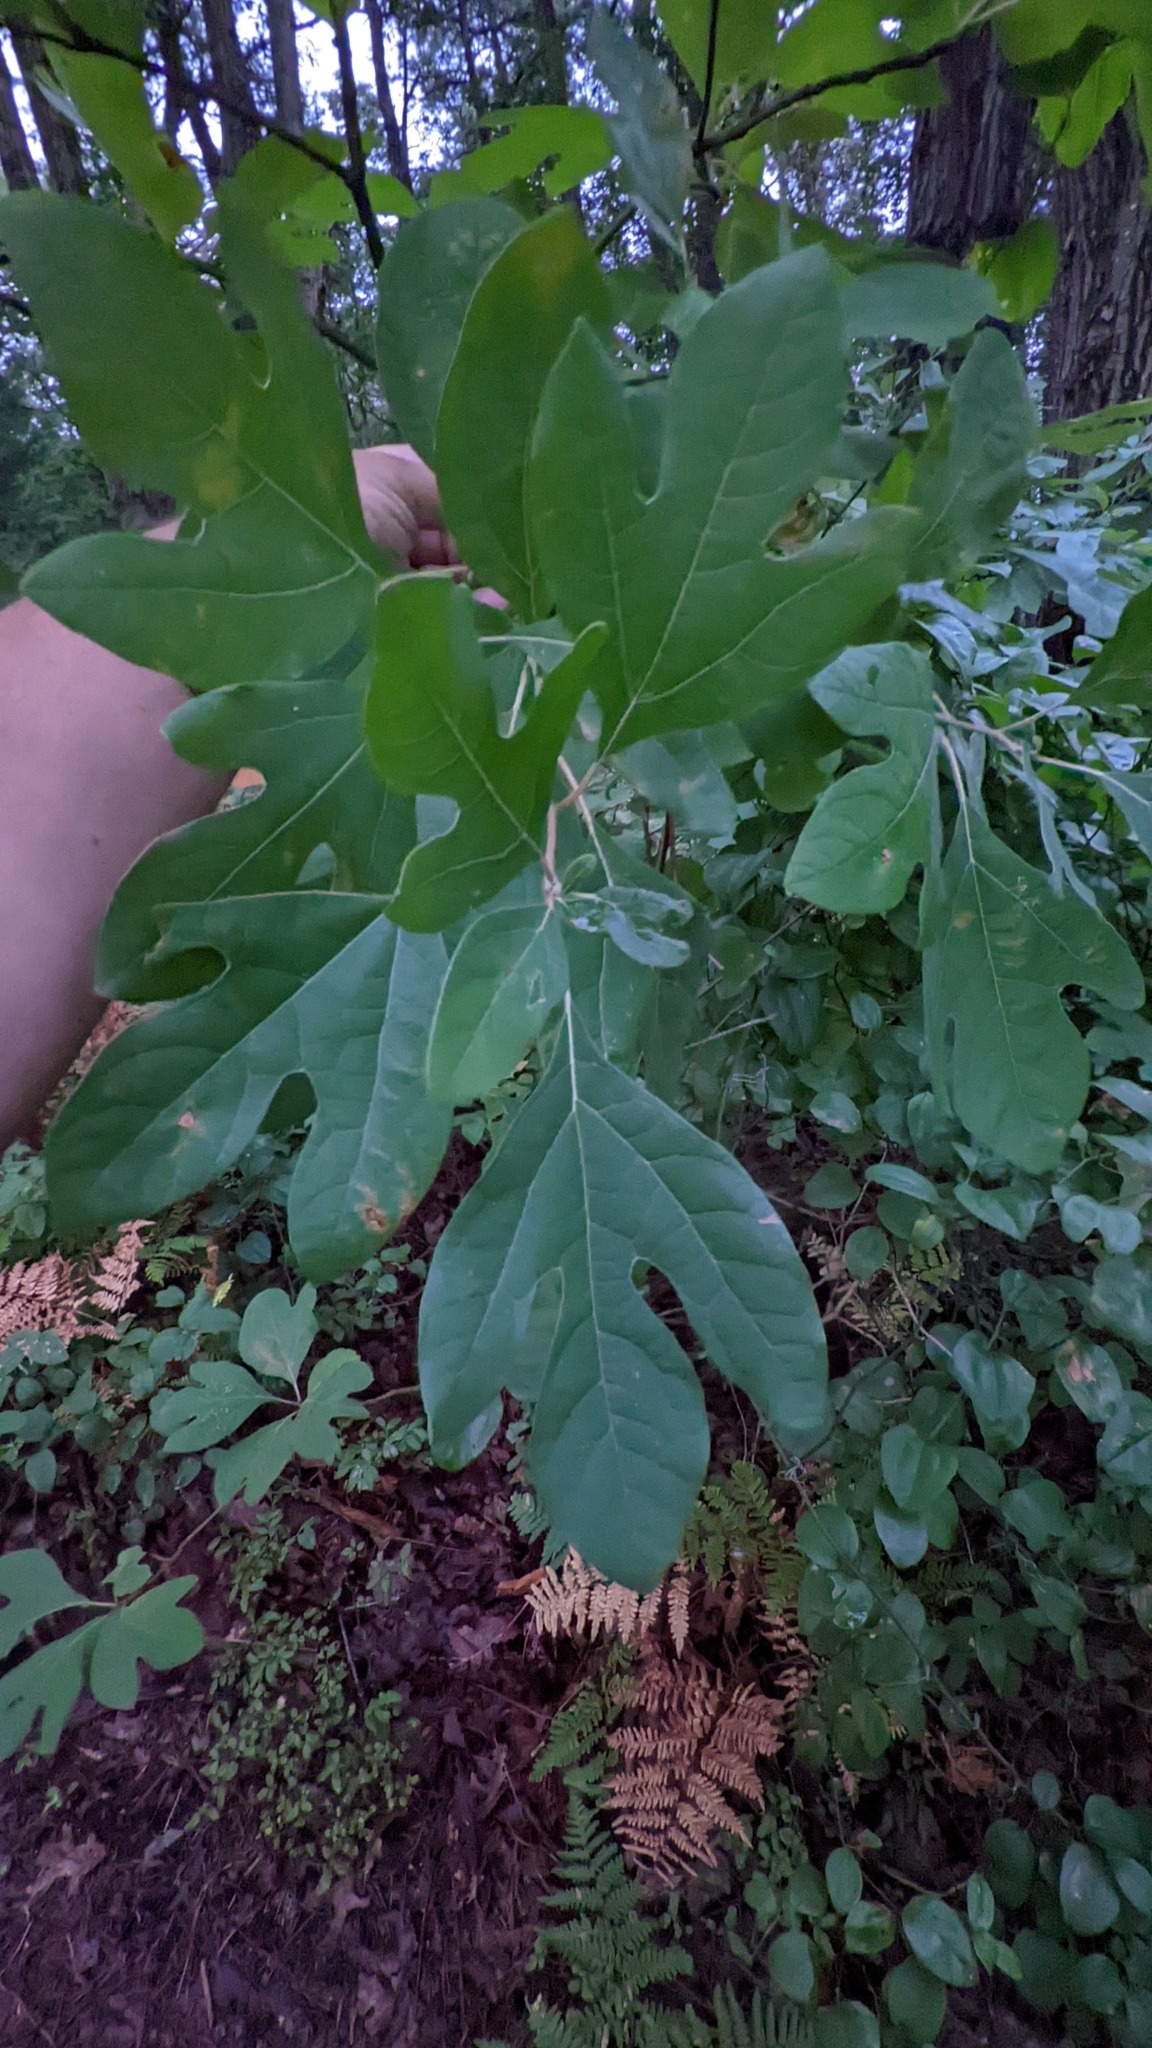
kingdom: Plantae
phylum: Tracheophyta
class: Magnoliopsida
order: Laurales
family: Lauraceae
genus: Sassafras
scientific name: Sassafras albidum
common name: Sassafras
